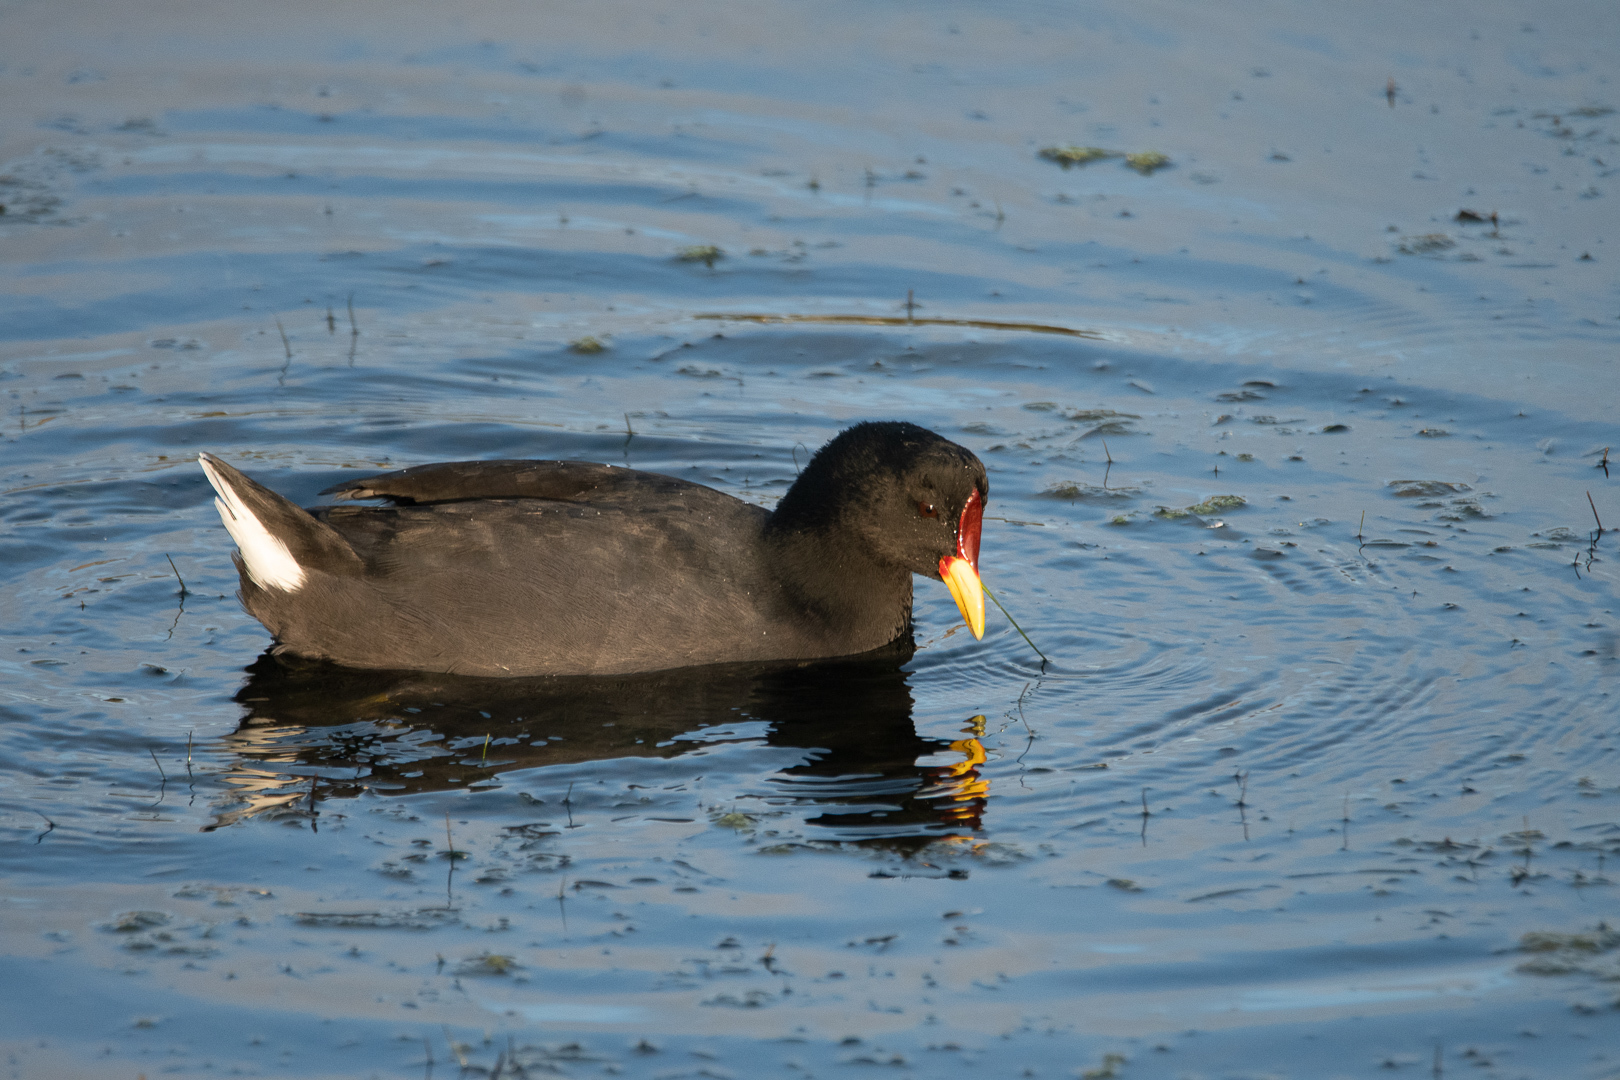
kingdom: Animalia
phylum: Chordata
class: Aves
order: Gruiformes
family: Rallidae
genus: Fulica
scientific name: Fulica rufifrons
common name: Red-fronted coot
